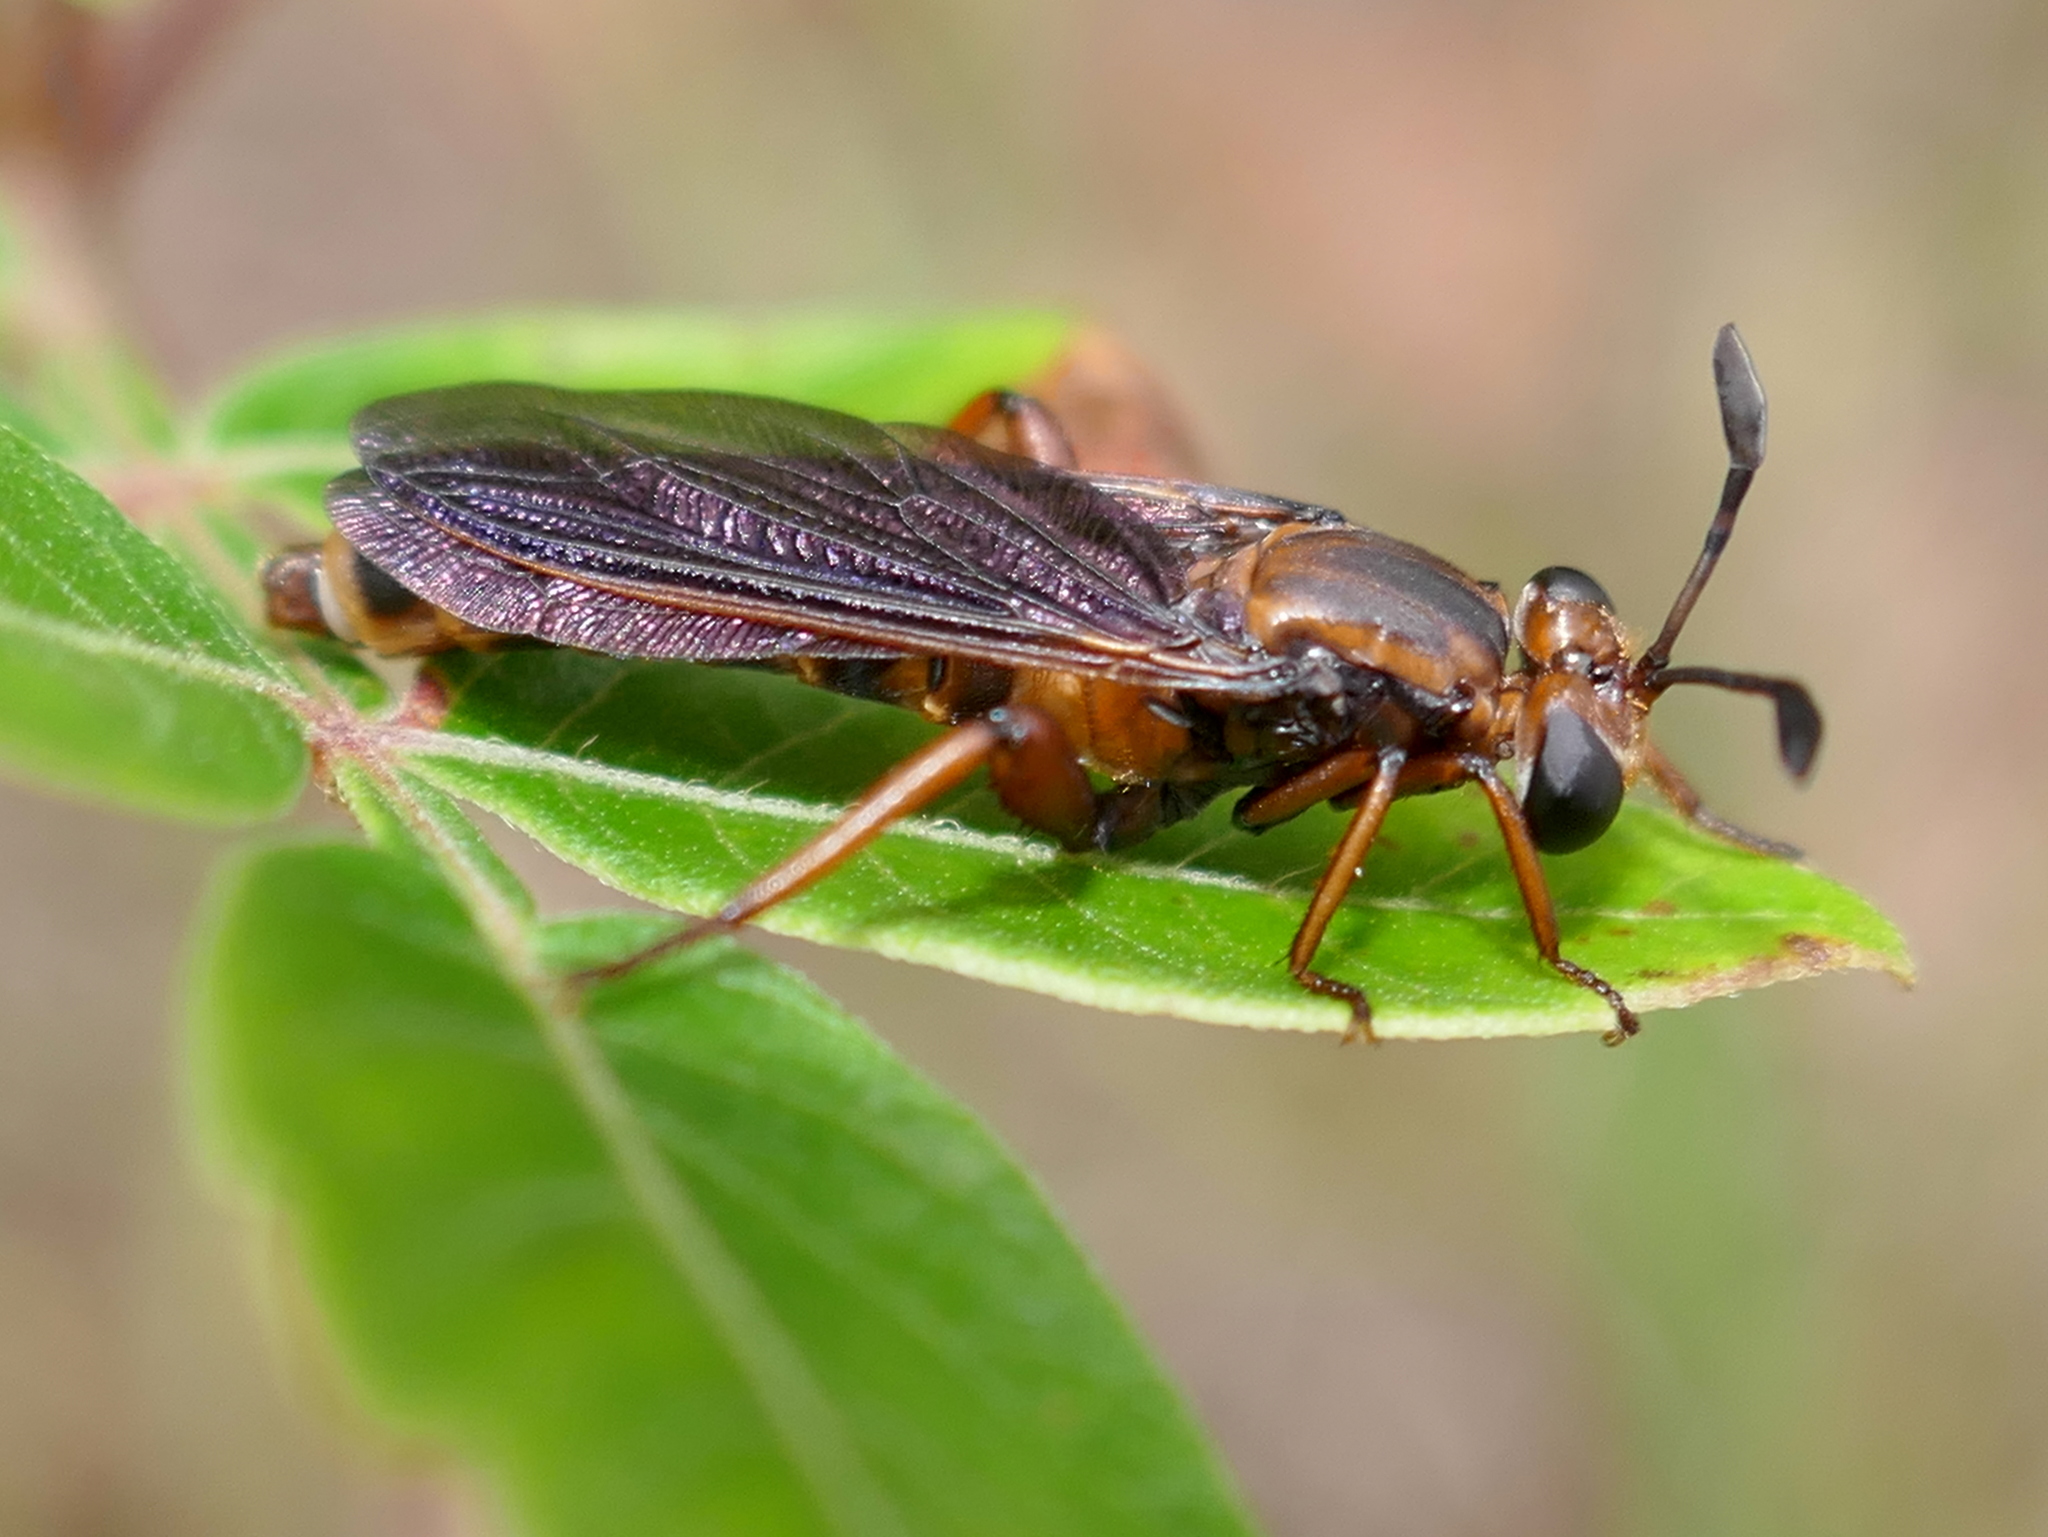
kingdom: Animalia
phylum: Arthropoda
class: Insecta
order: Diptera
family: Mydidae
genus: Phyllomydas
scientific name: Phyllomydas parvulus
